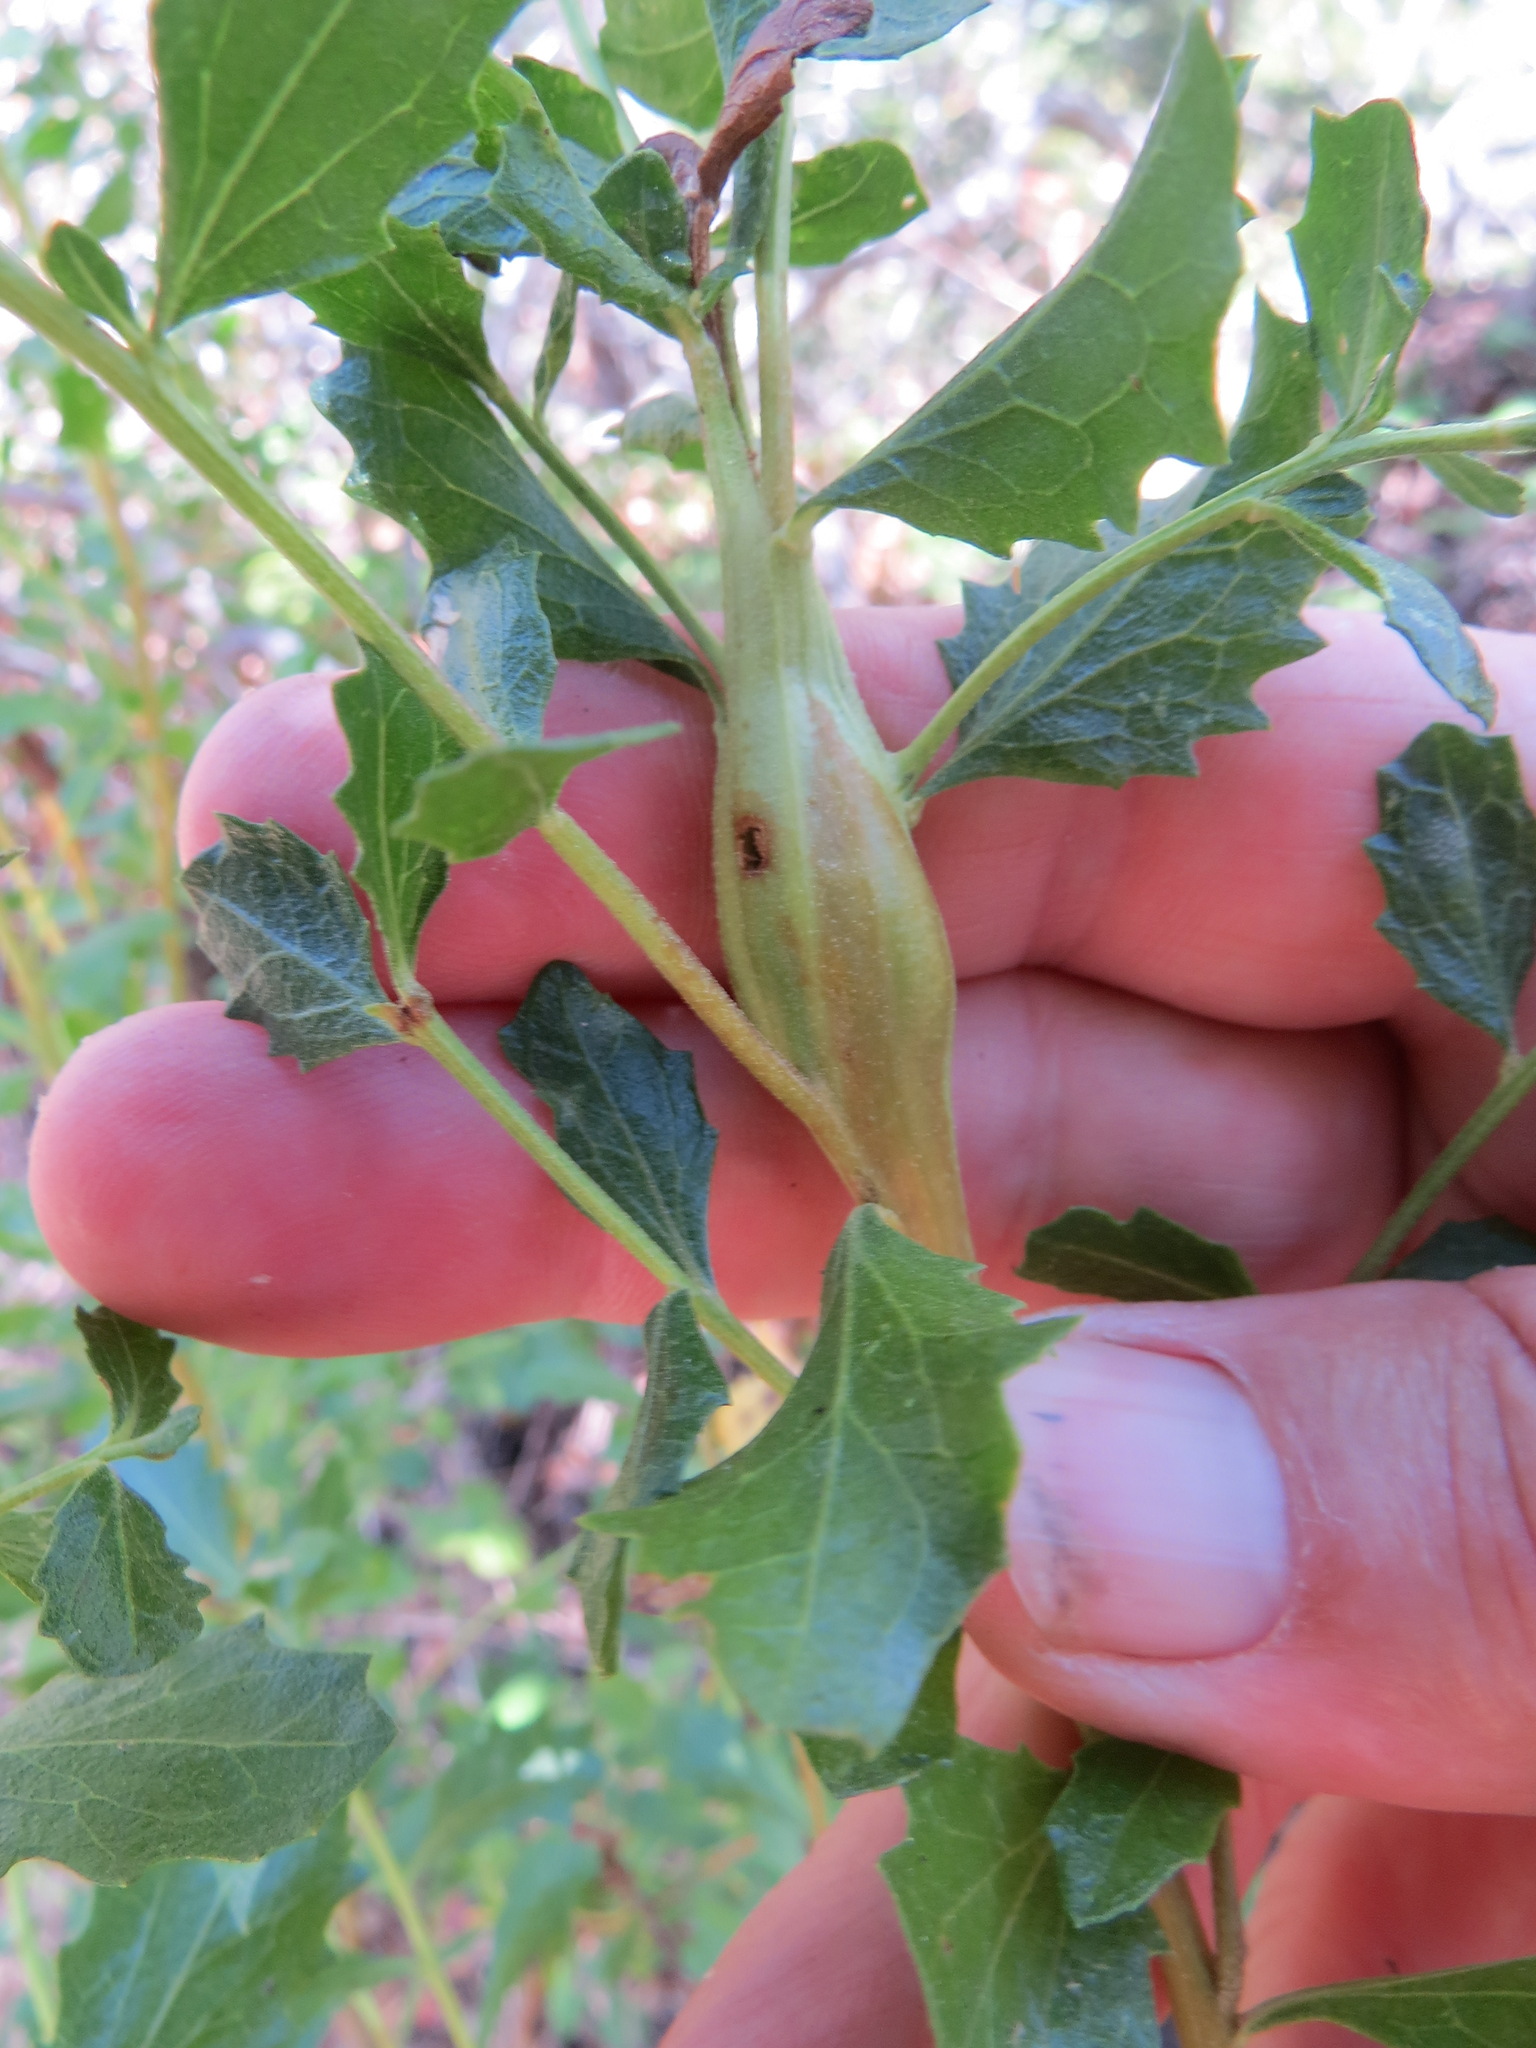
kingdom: Animalia
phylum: Arthropoda
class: Insecta
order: Lepidoptera
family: Gelechiidae
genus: Gnorimoschema
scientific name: Gnorimoschema baccharisella
